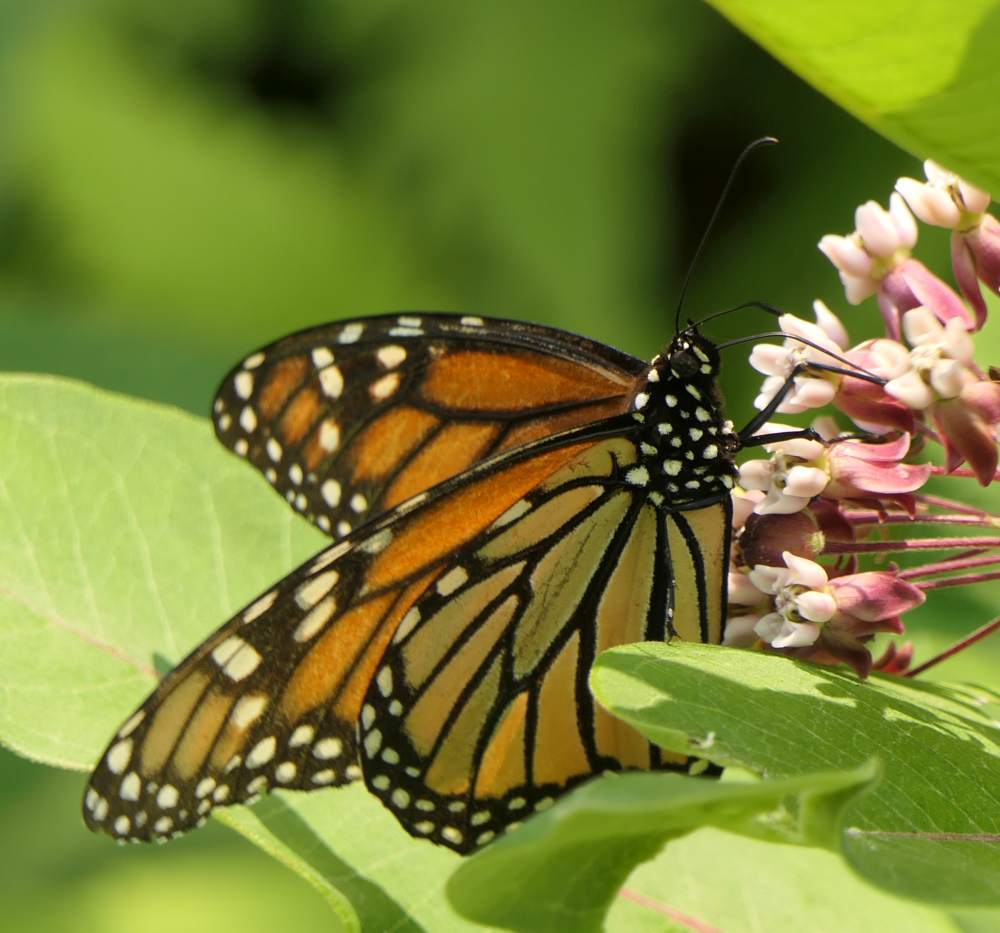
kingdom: Animalia
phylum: Arthropoda
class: Insecta
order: Lepidoptera
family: Nymphalidae
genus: Danaus
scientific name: Danaus plexippus
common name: Monarch
